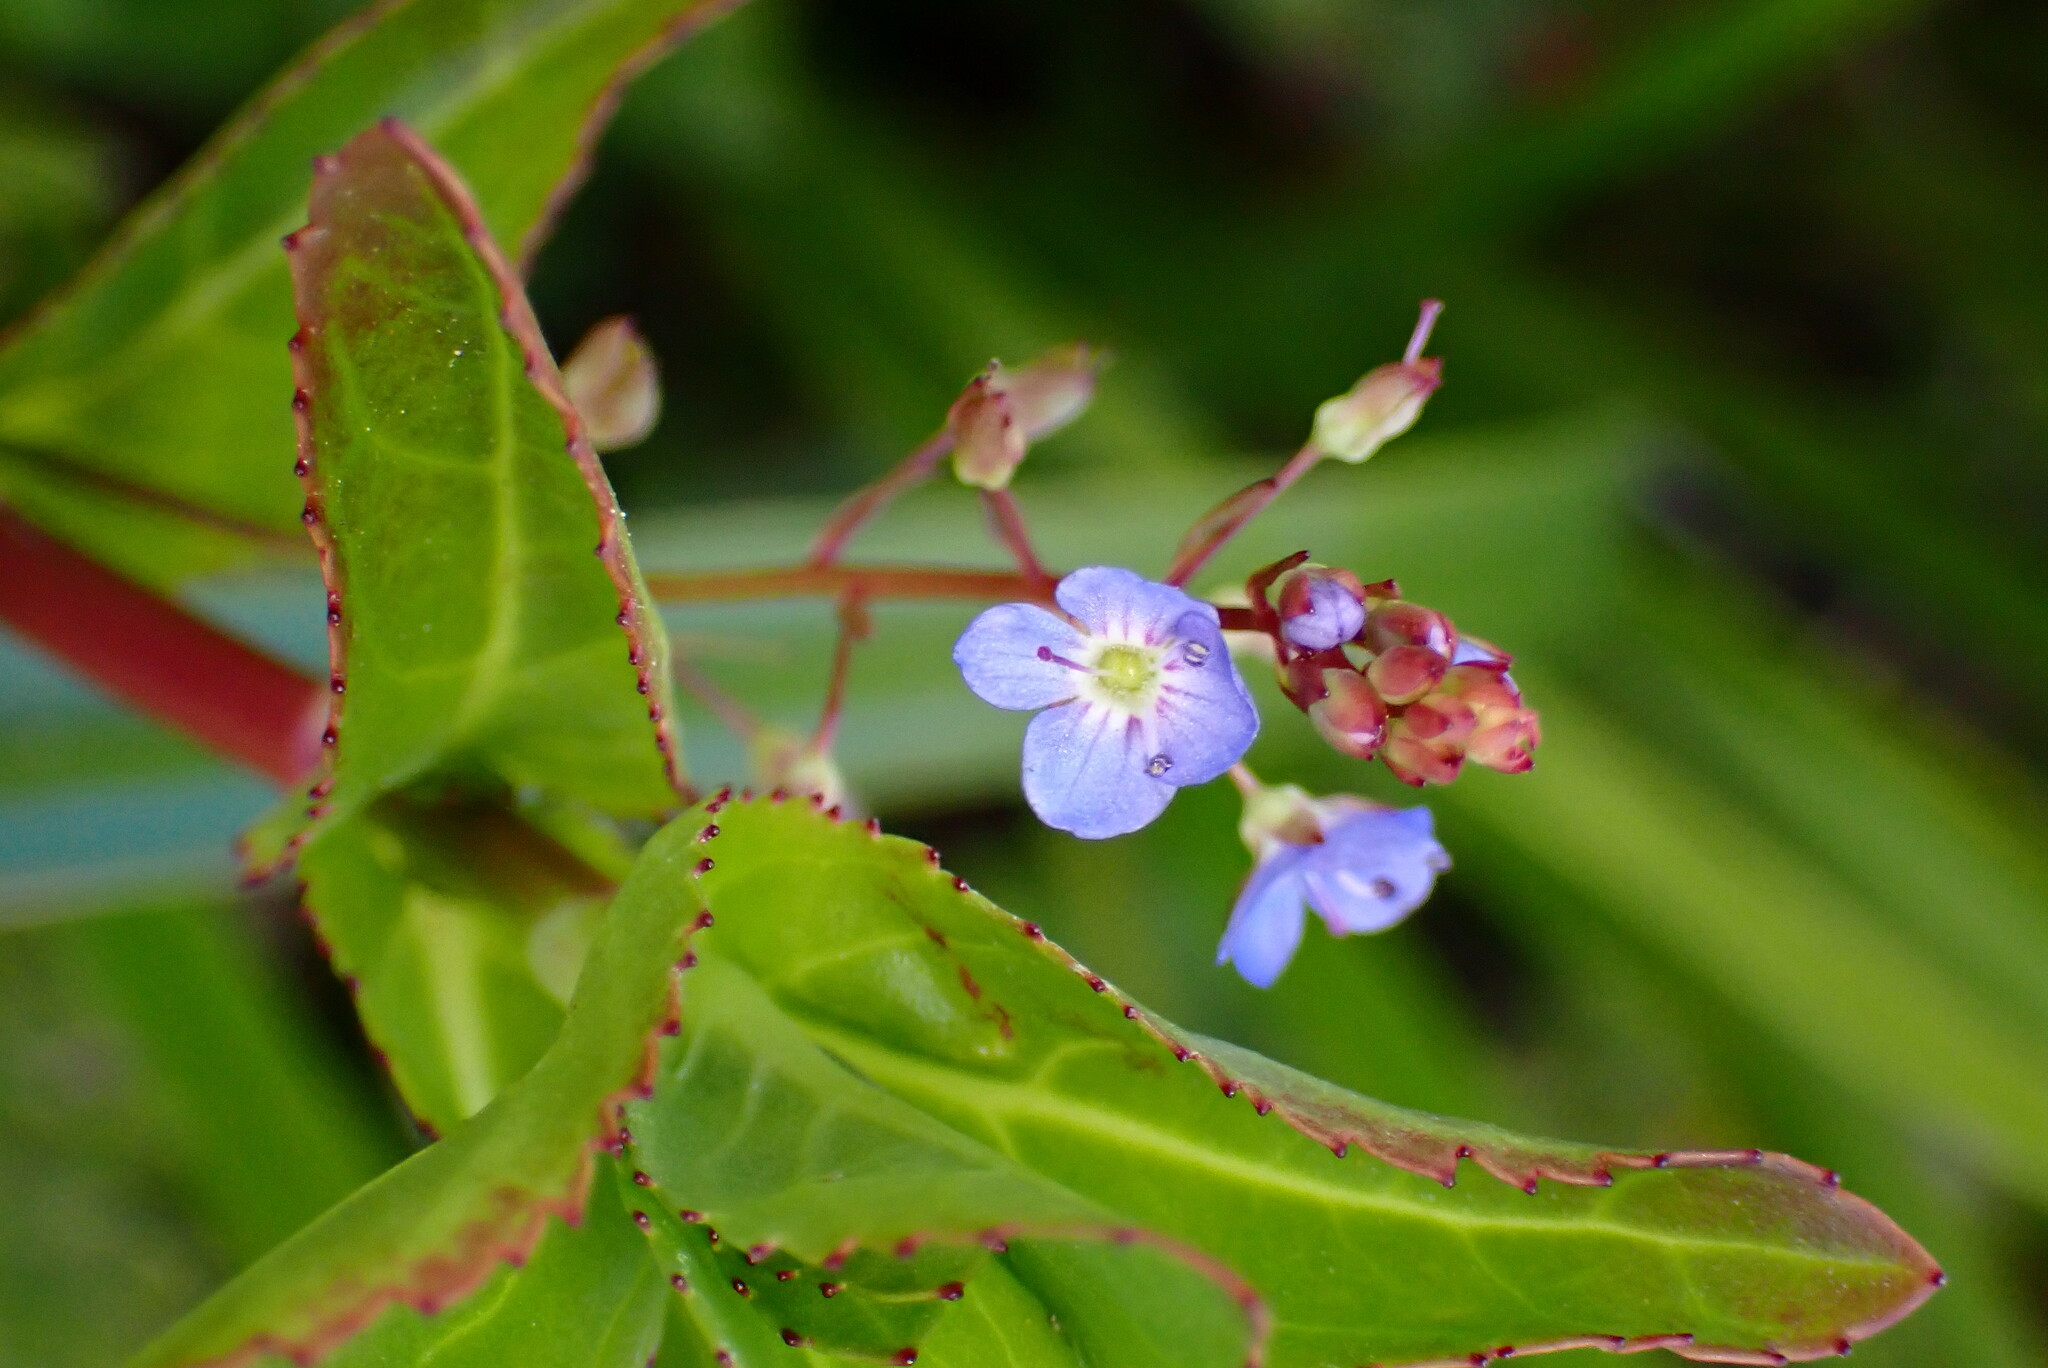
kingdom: Plantae
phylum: Tracheophyta
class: Magnoliopsida
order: Lamiales
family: Plantaginaceae
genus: Veronica
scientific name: Veronica americana
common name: American brooklime
